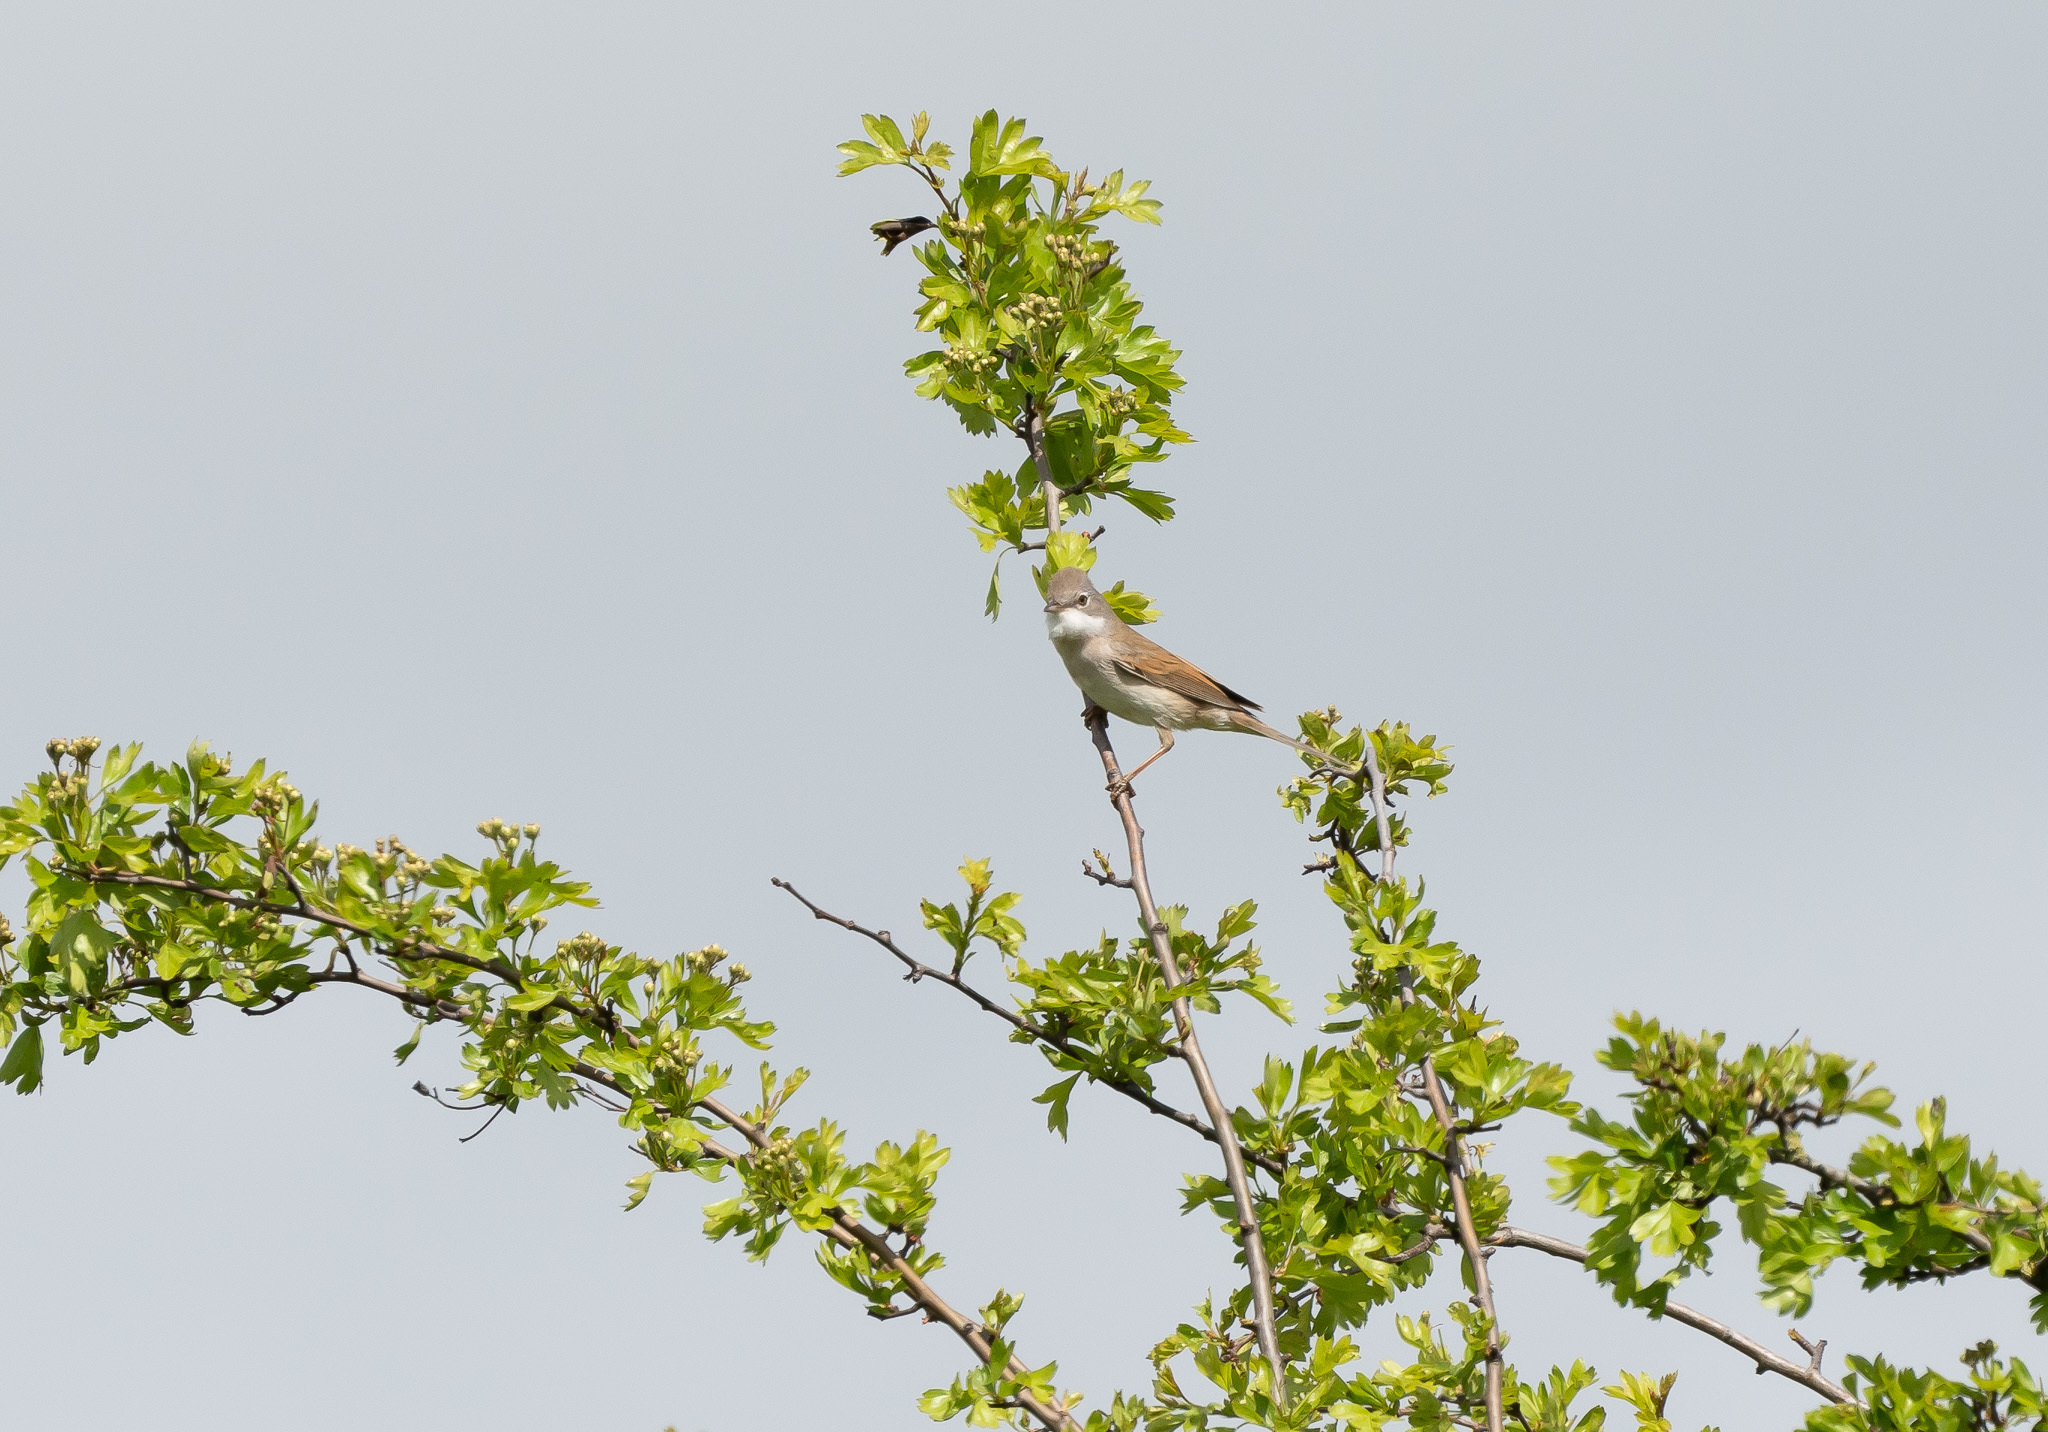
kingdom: Animalia
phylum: Chordata
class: Aves
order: Passeriformes
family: Sylviidae
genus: Sylvia
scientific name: Sylvia communis
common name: Common whitethroat
